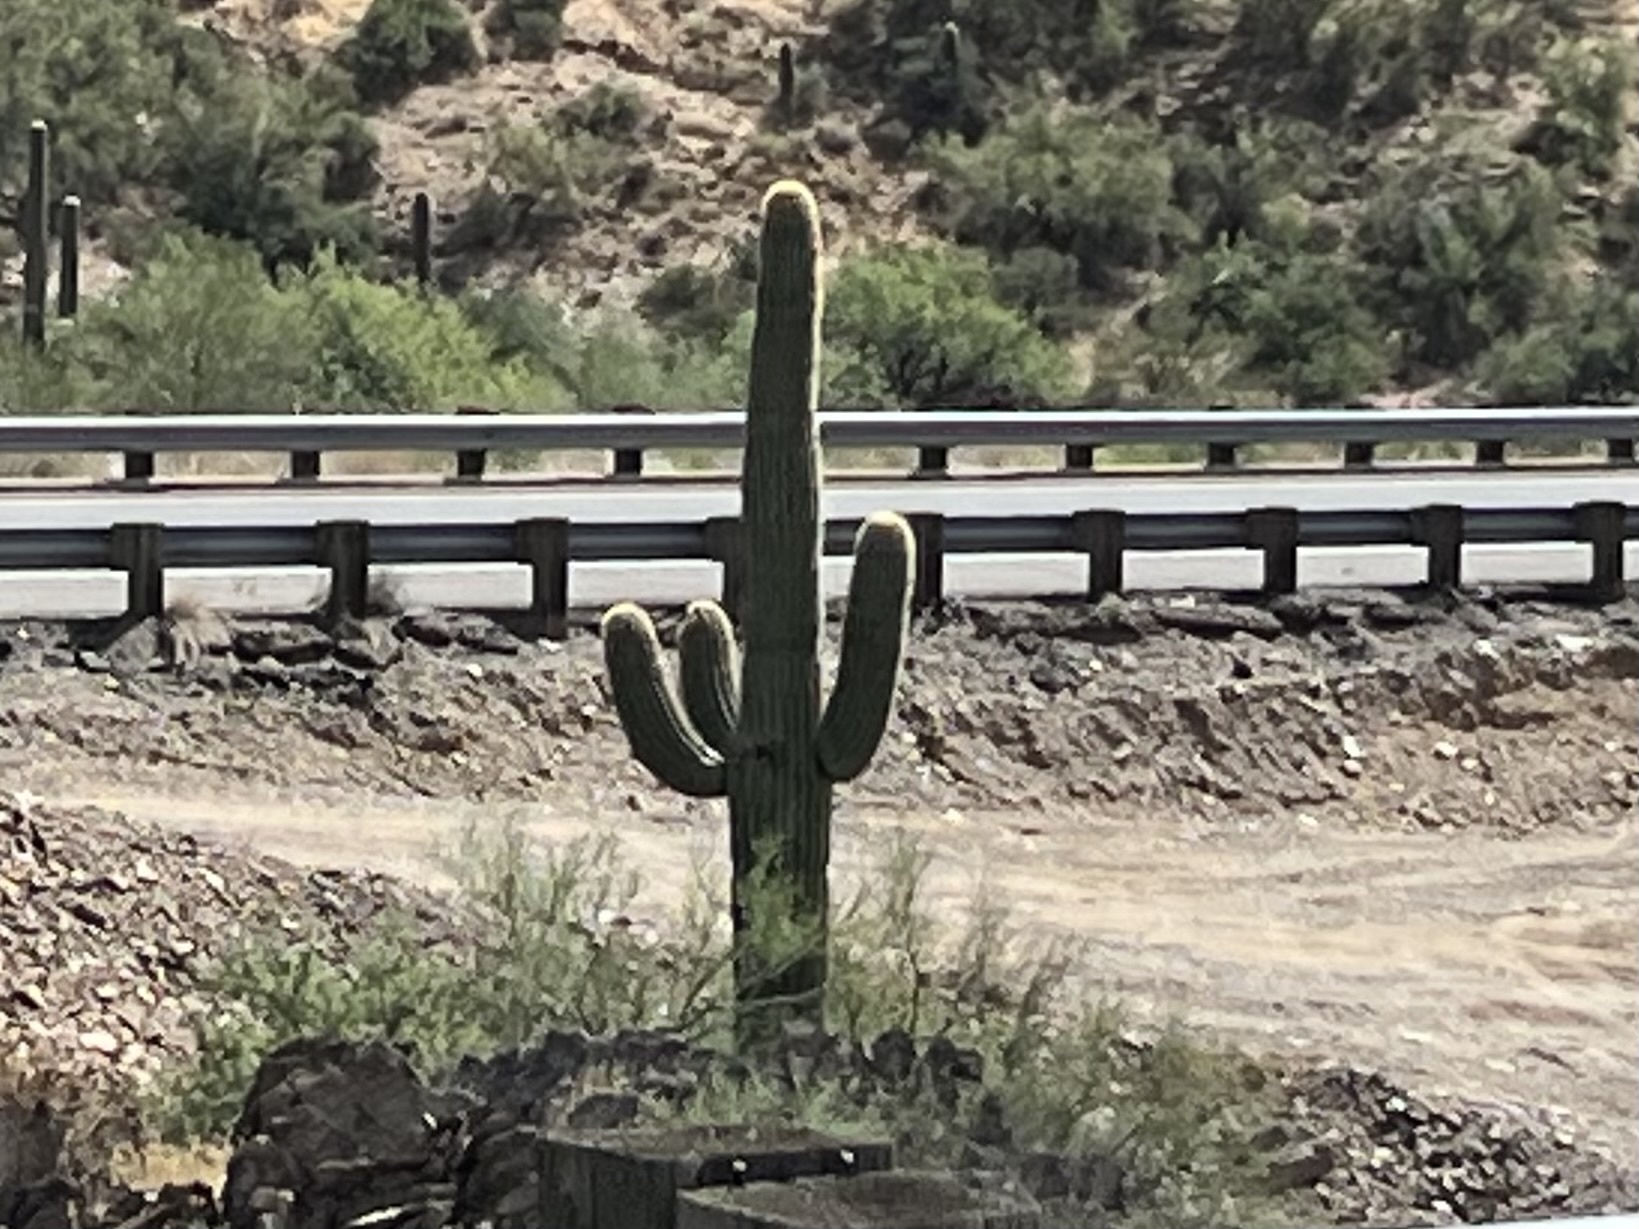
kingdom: Plantae
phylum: Tracheophyta
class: Magnoliopsida
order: Caryophyllales
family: Cactaceae
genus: Carnegiea
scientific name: Carnegiea gigantea
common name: Saguaro
